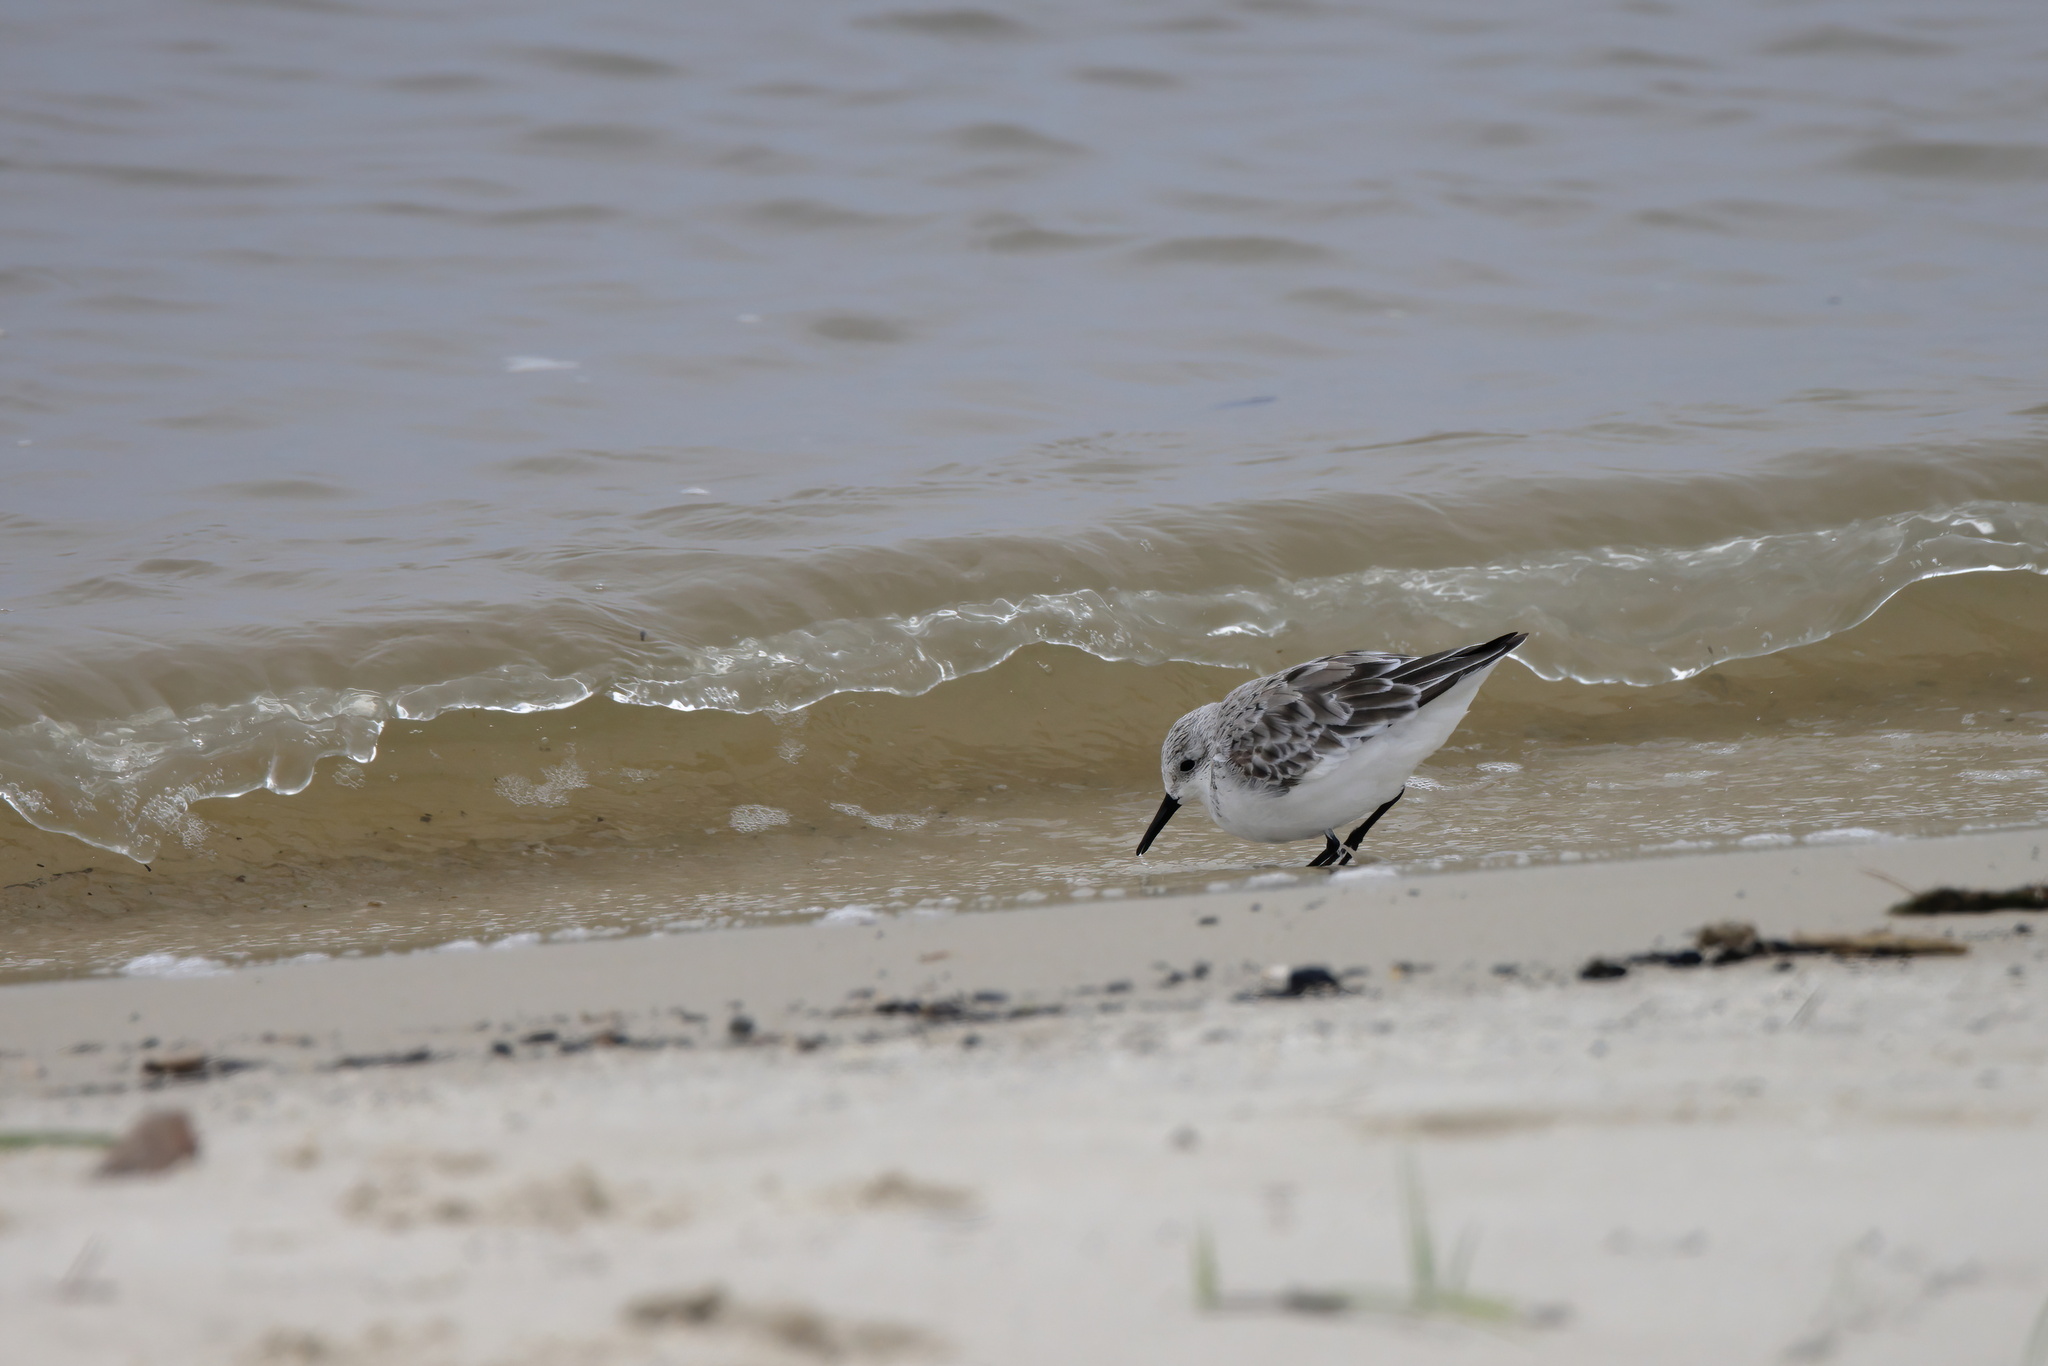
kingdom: Animalia
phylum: Chordata
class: Aves
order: Charadriiformes
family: Scolopacidae
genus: Calidris
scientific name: Calidris alba
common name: Sanderling
